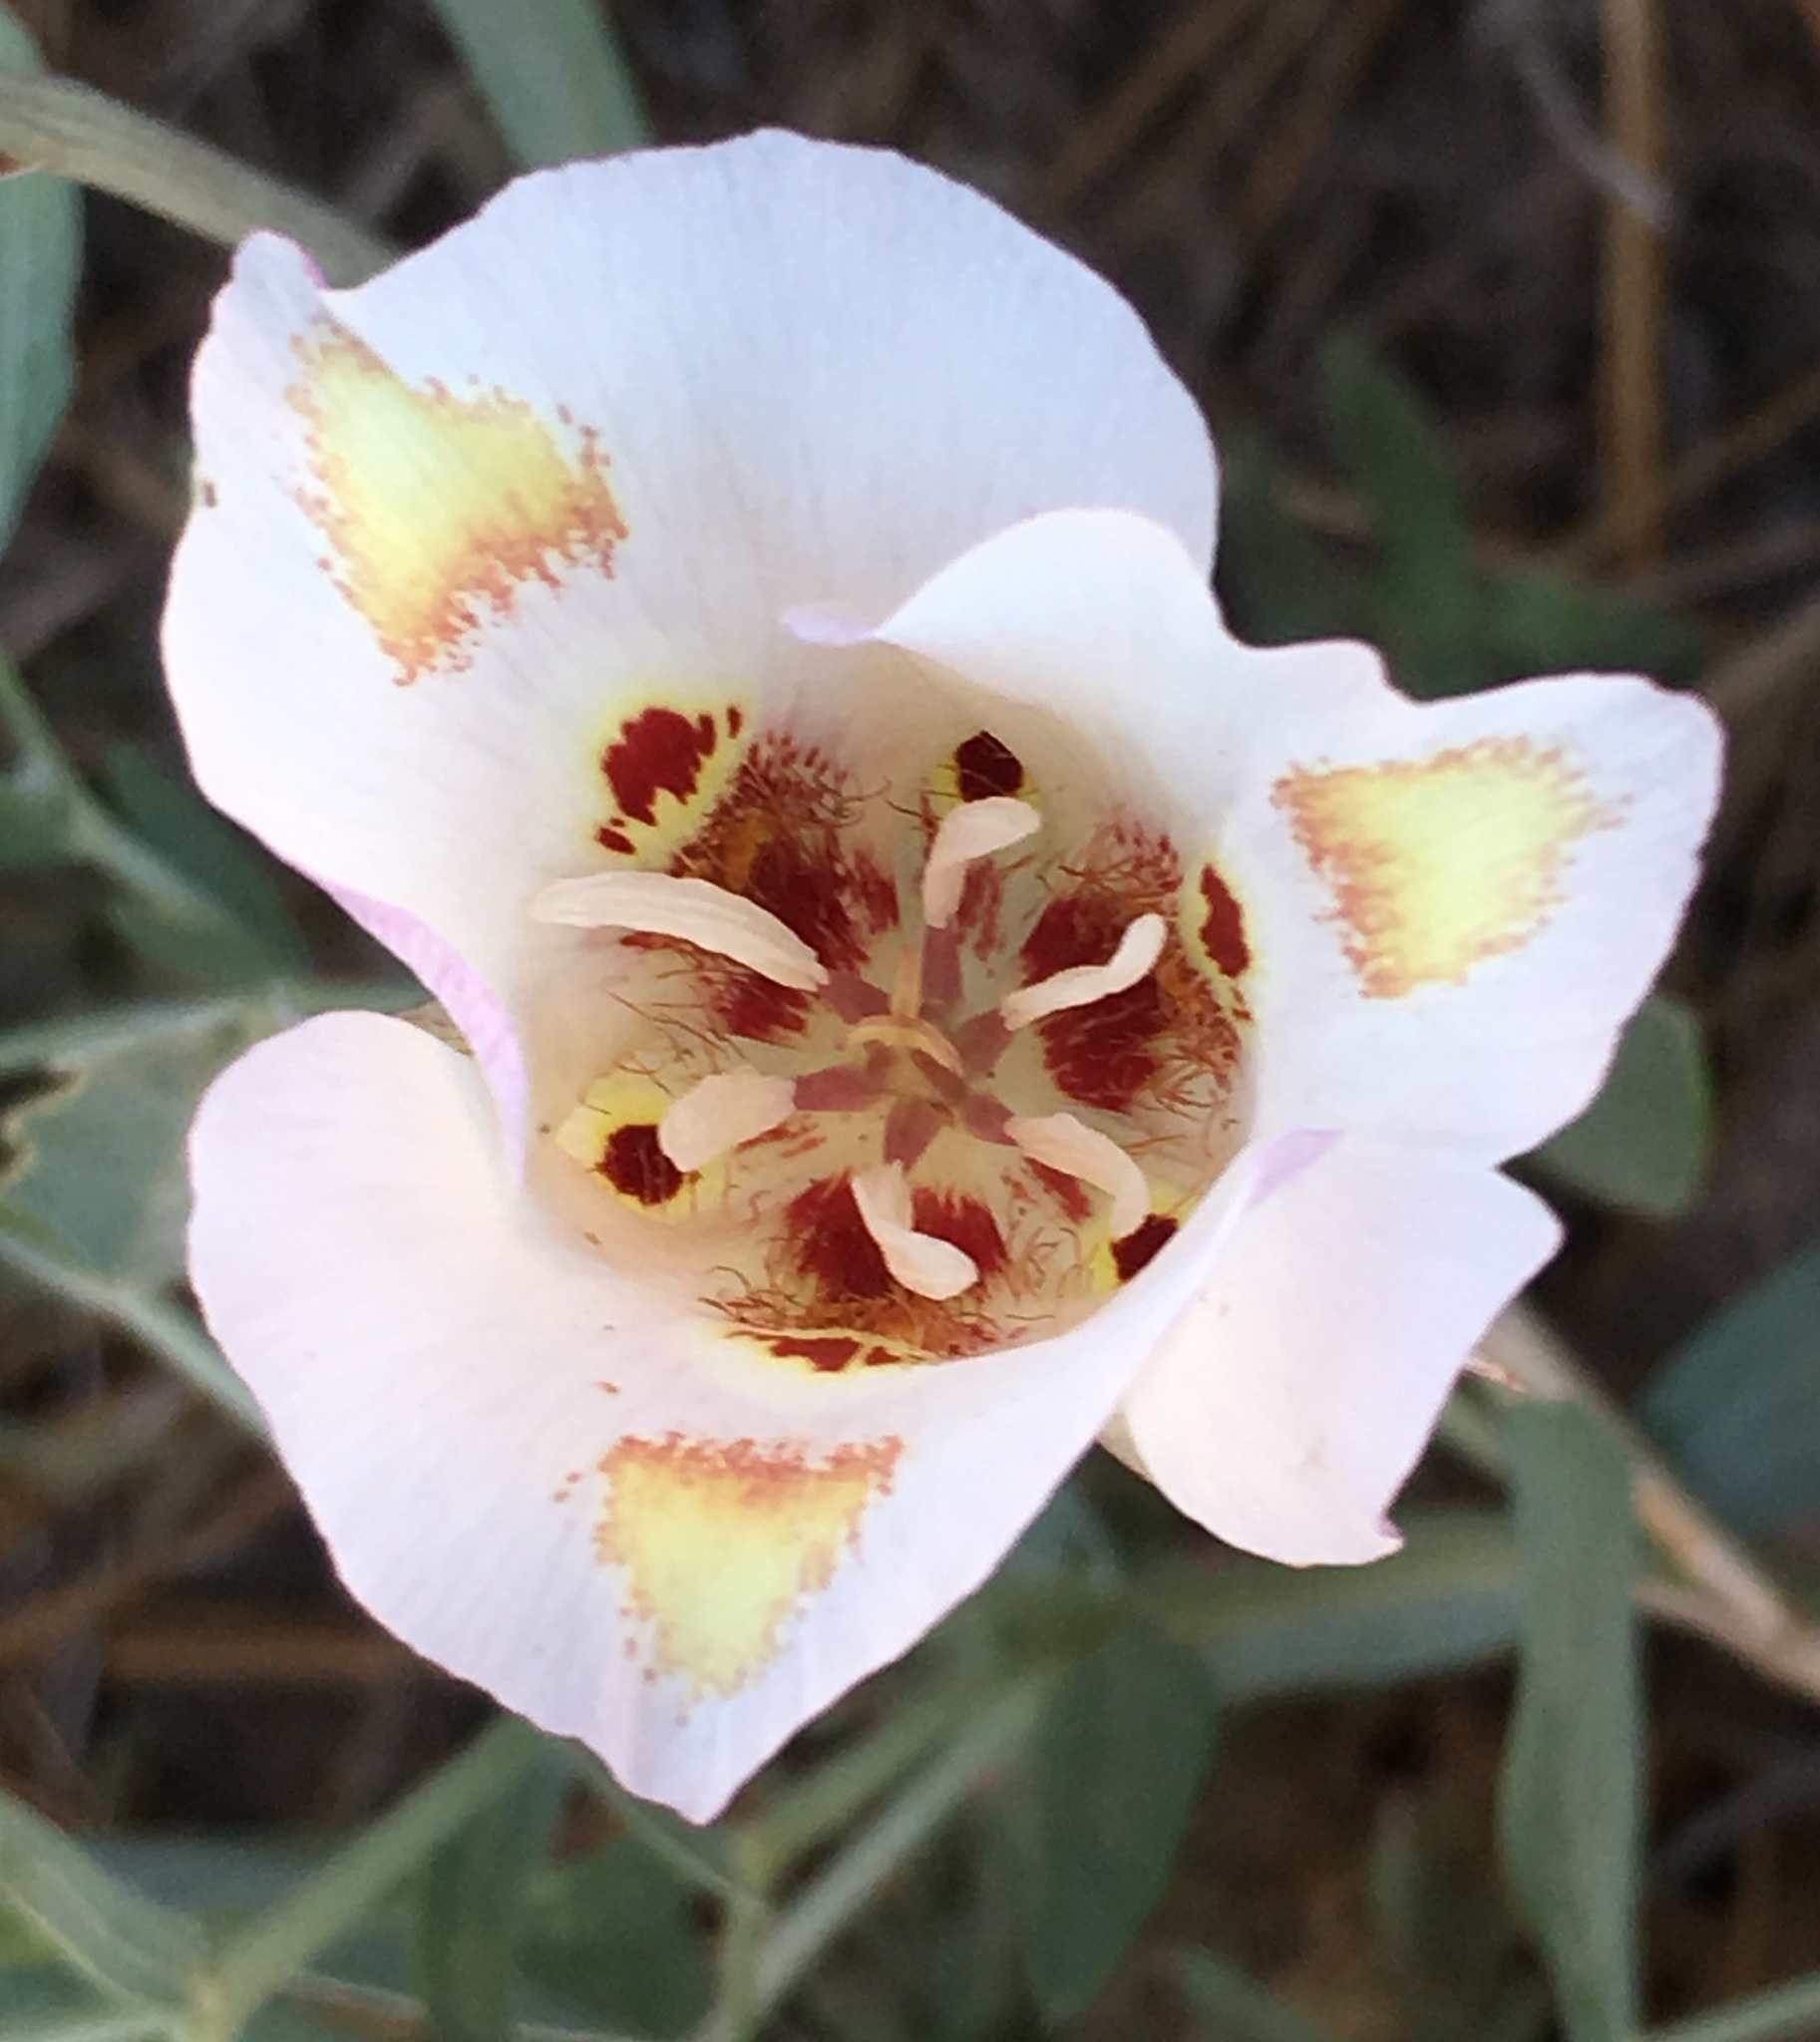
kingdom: Plantae
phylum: Tracheophyta
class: Liliopsida
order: Liliales
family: Liliaceae
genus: Calochortus
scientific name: Calochortus venustus
